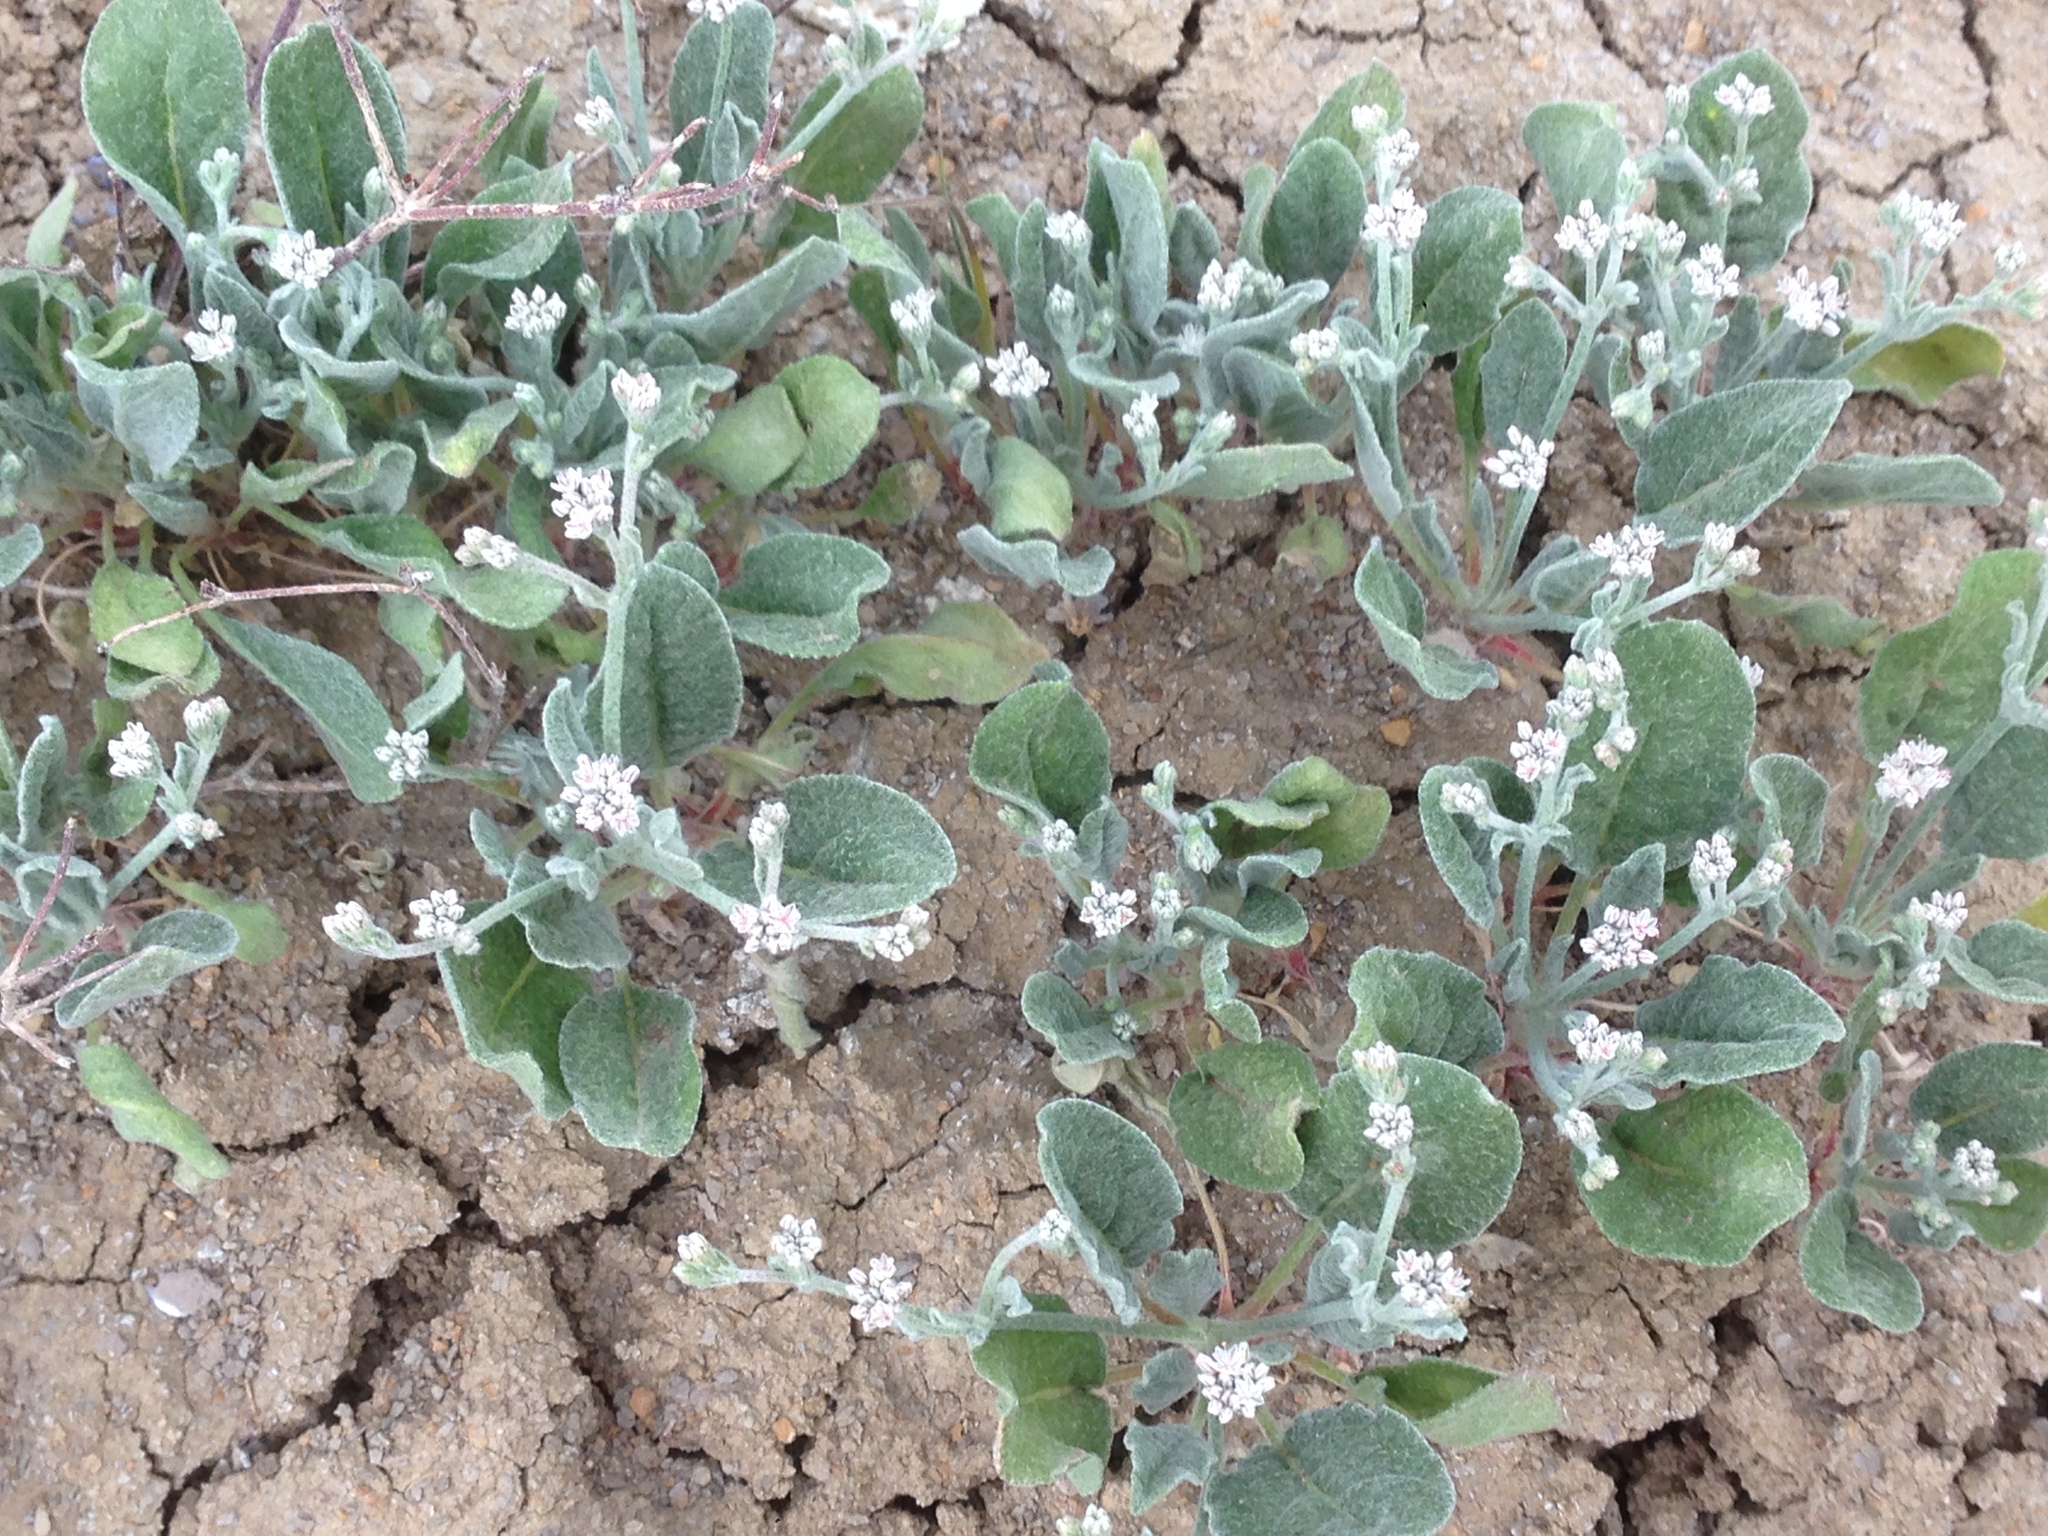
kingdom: Plantae
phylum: Tracheophyta
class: Magnoliopsida
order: Caryophyllales
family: Polygonaceae
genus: Eriogonum
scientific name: Eriogonum vestitum
